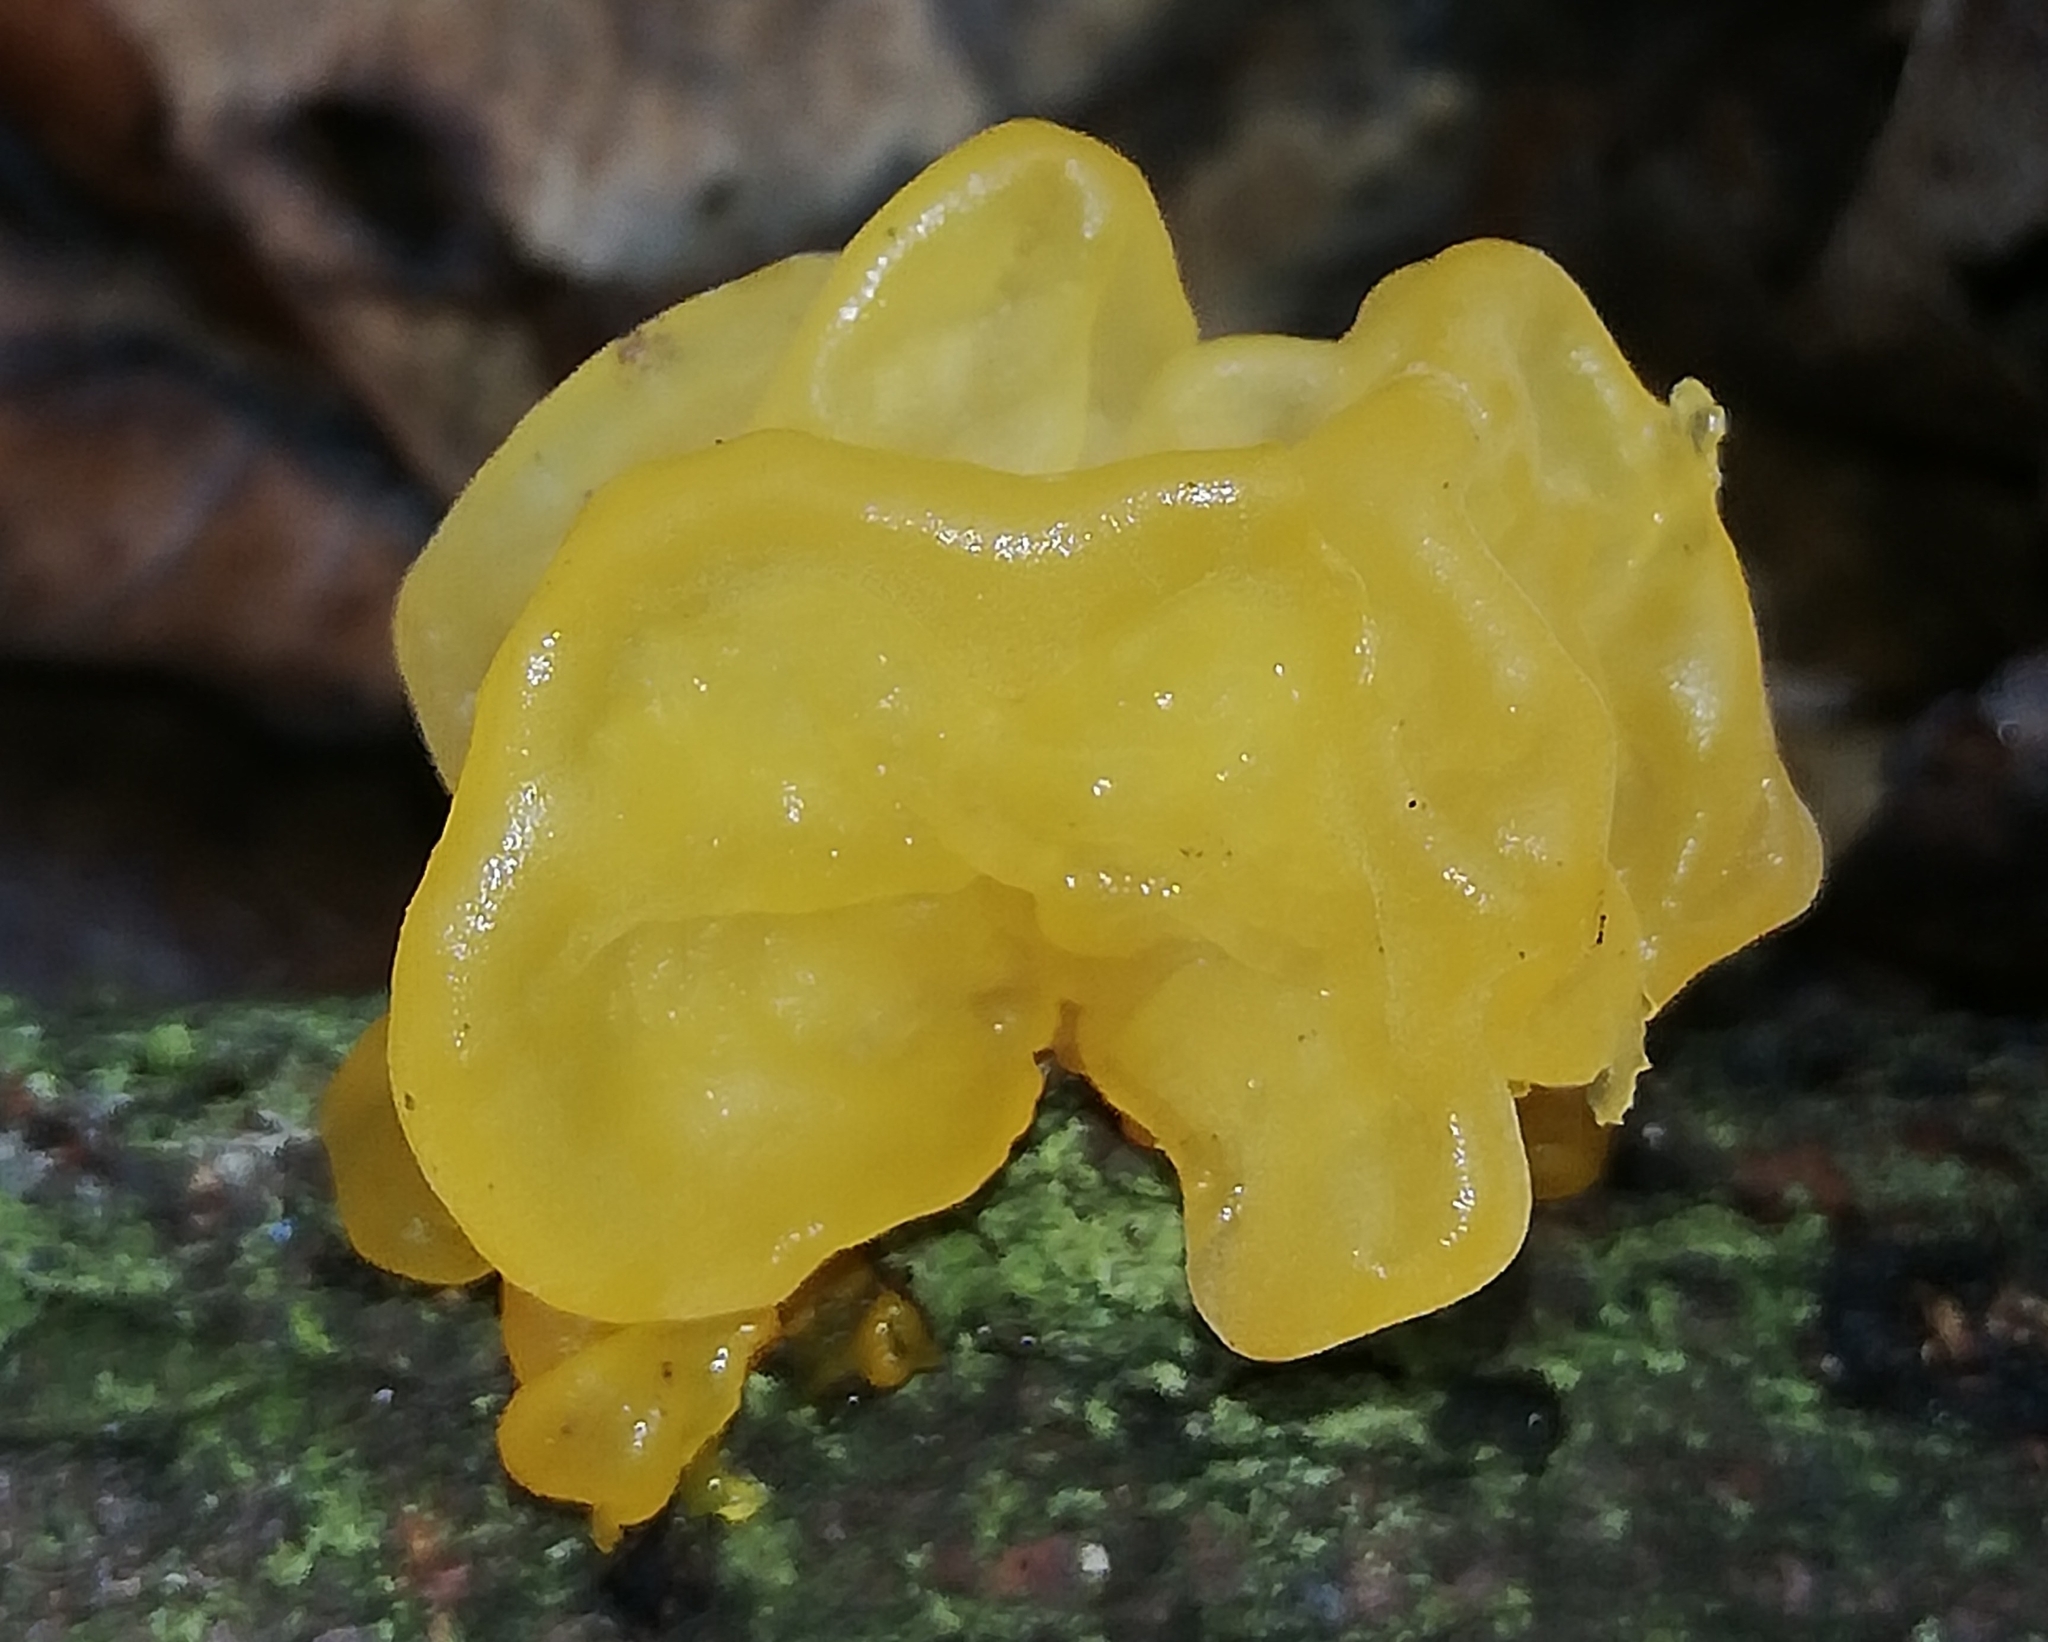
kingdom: Fungi
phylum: Basidiomycota
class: Tremellomycetes
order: Tremellales
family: Tremellaceae
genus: Tremella
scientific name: Tremella mesenterica
